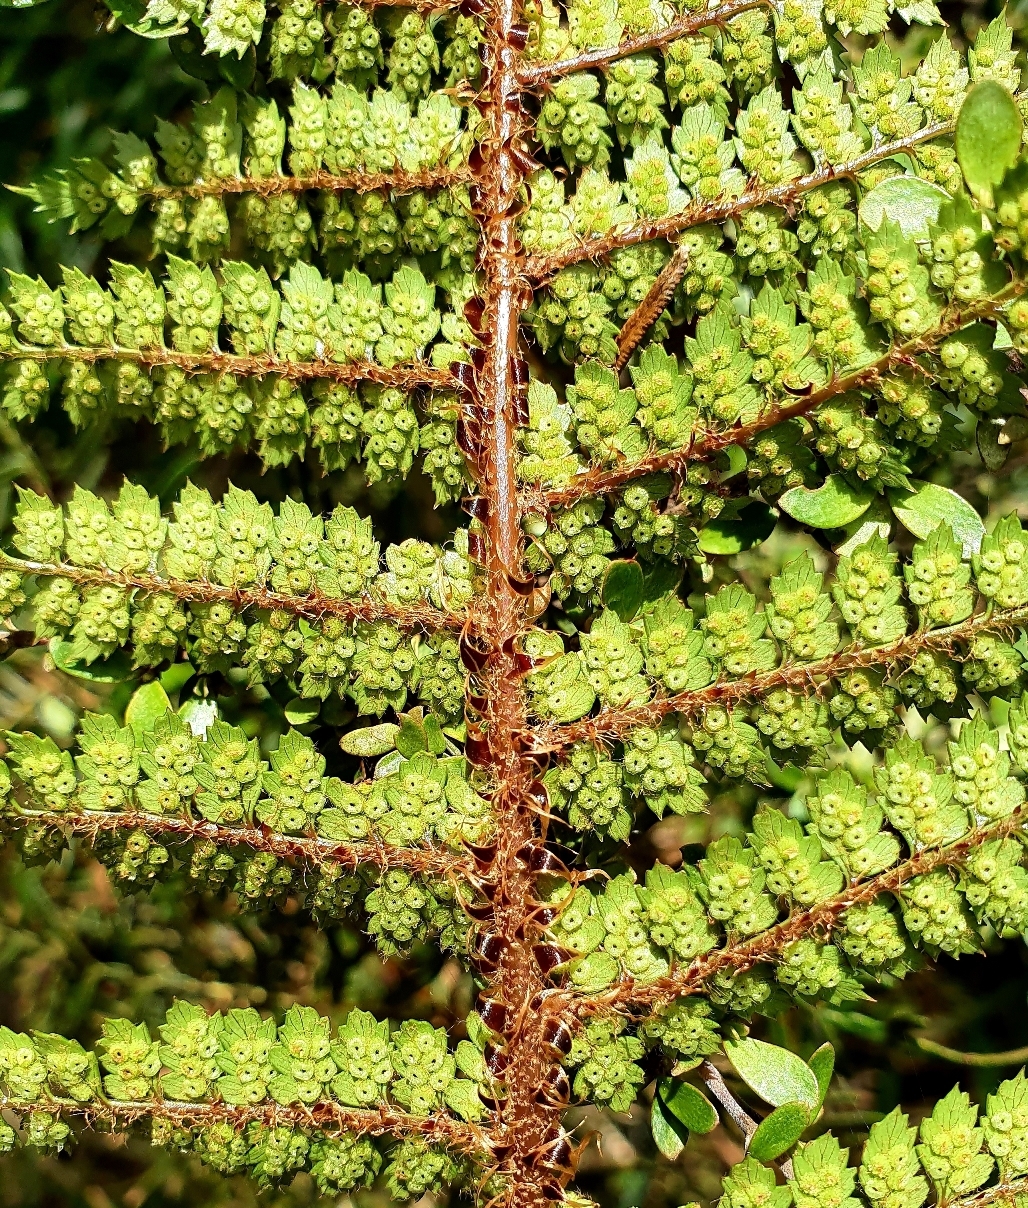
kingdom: Plantae
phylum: Tracheophyta
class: Polypodiopsida
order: Polypodiales
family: Dryopteridaceae
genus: Polystichum
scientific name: Polystichum vestitum
